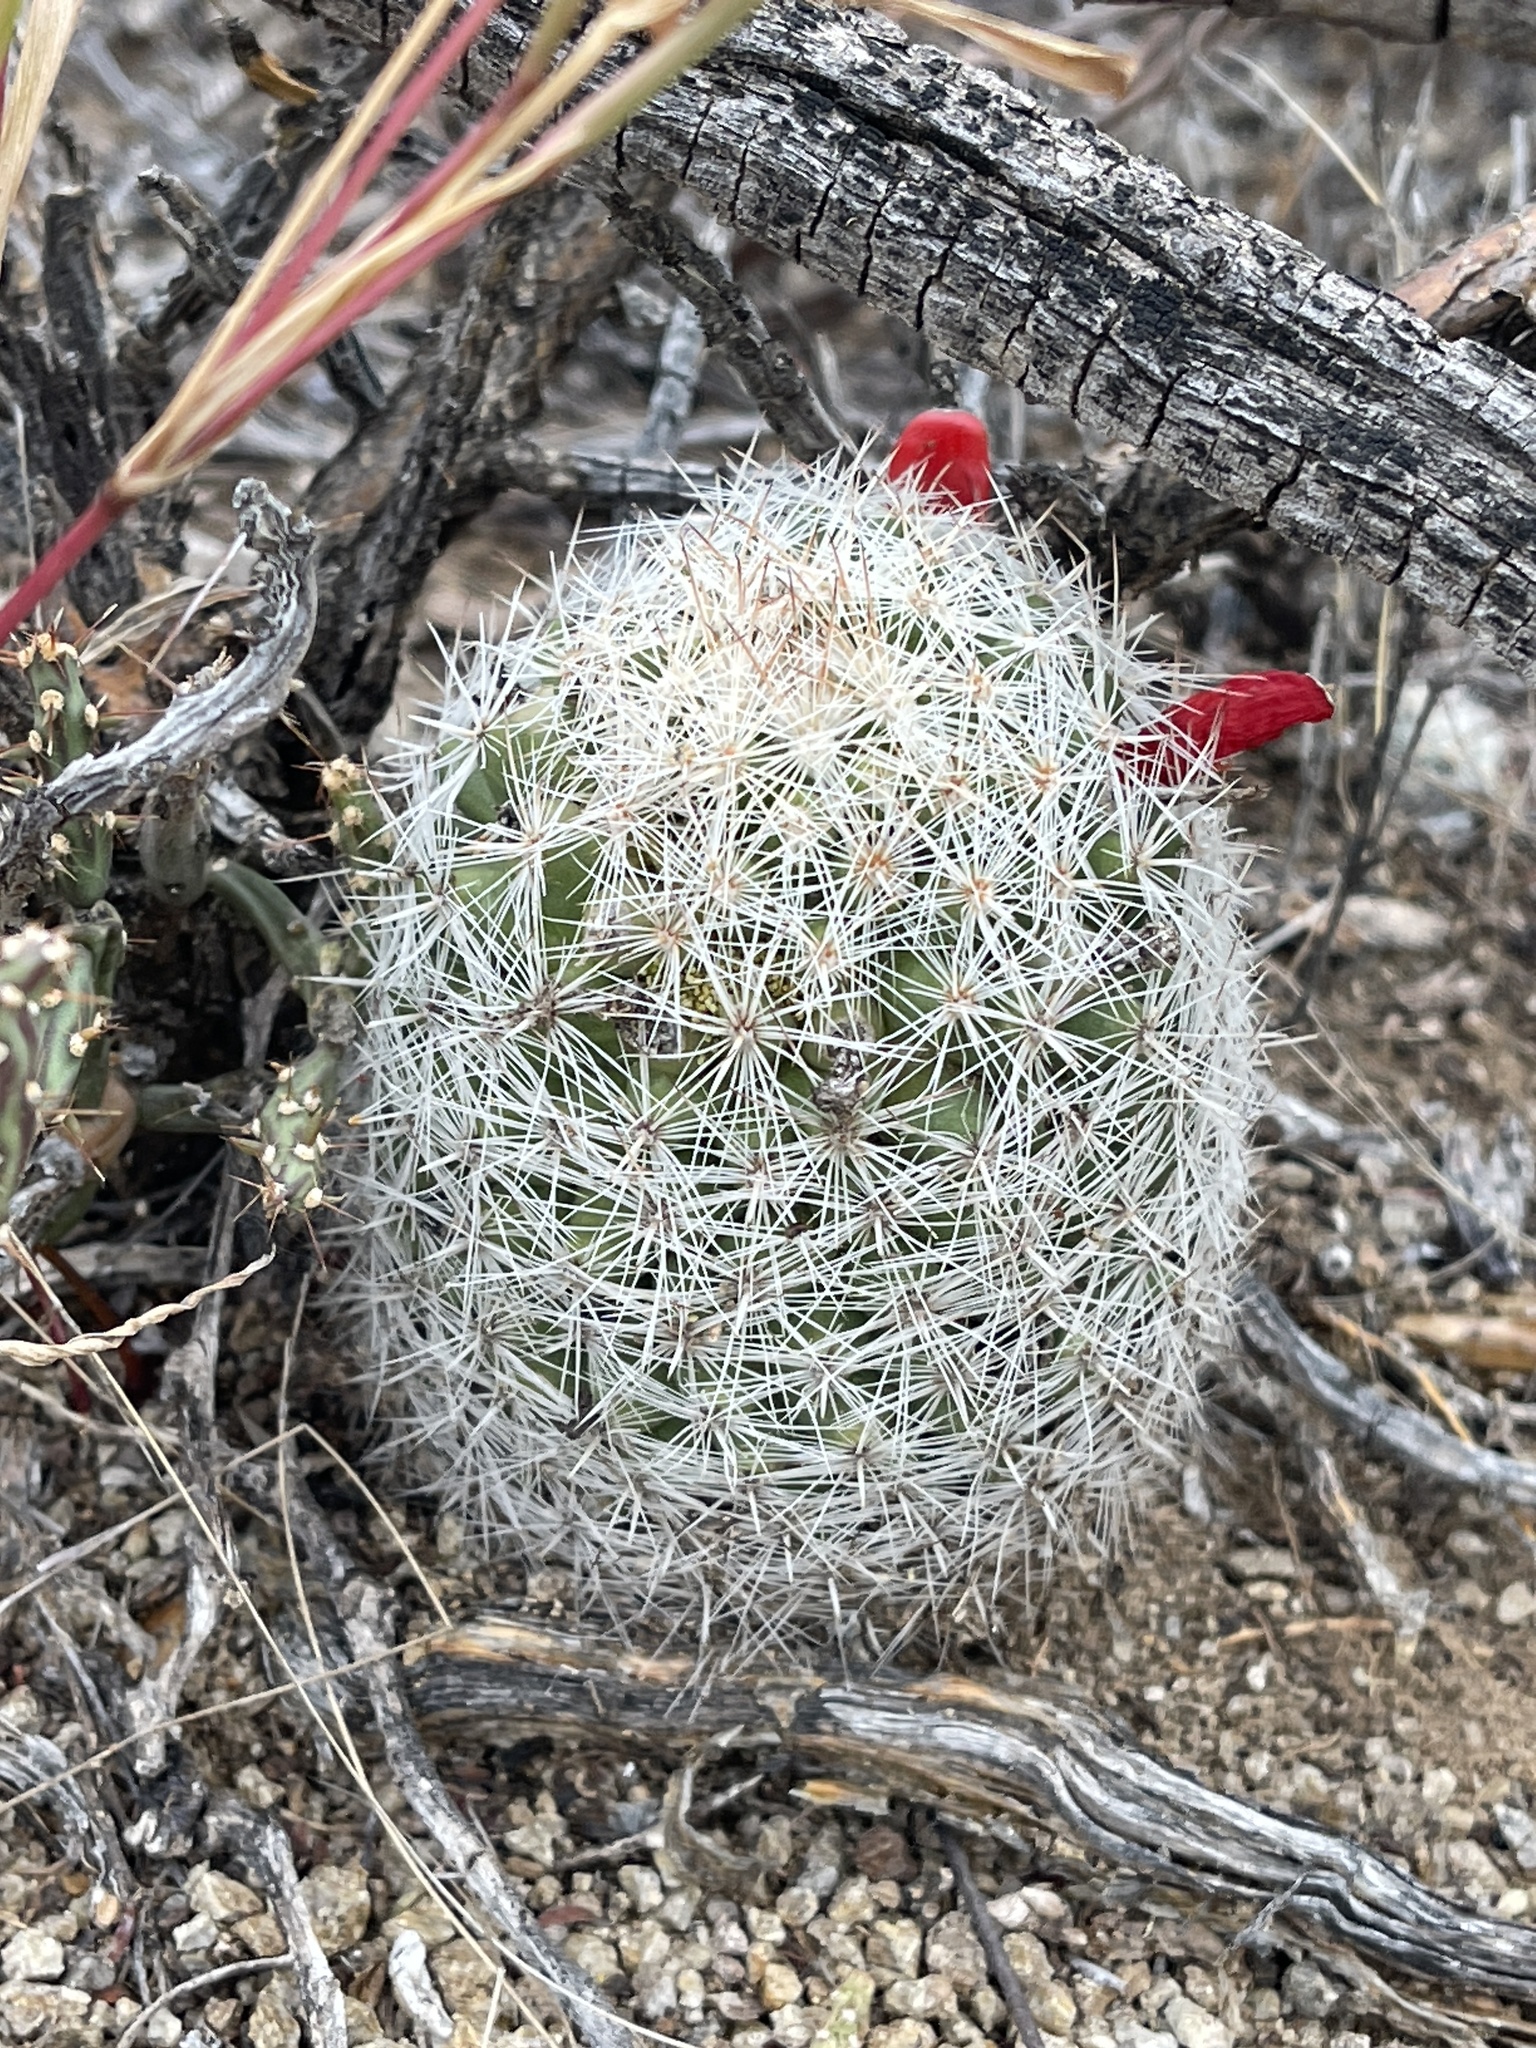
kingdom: Plantae
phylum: Tracheophyta
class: Magnoliopsida
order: Caryophyllales
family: Cactaceae
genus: Cochemiea
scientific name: Cochemiea grahamii
